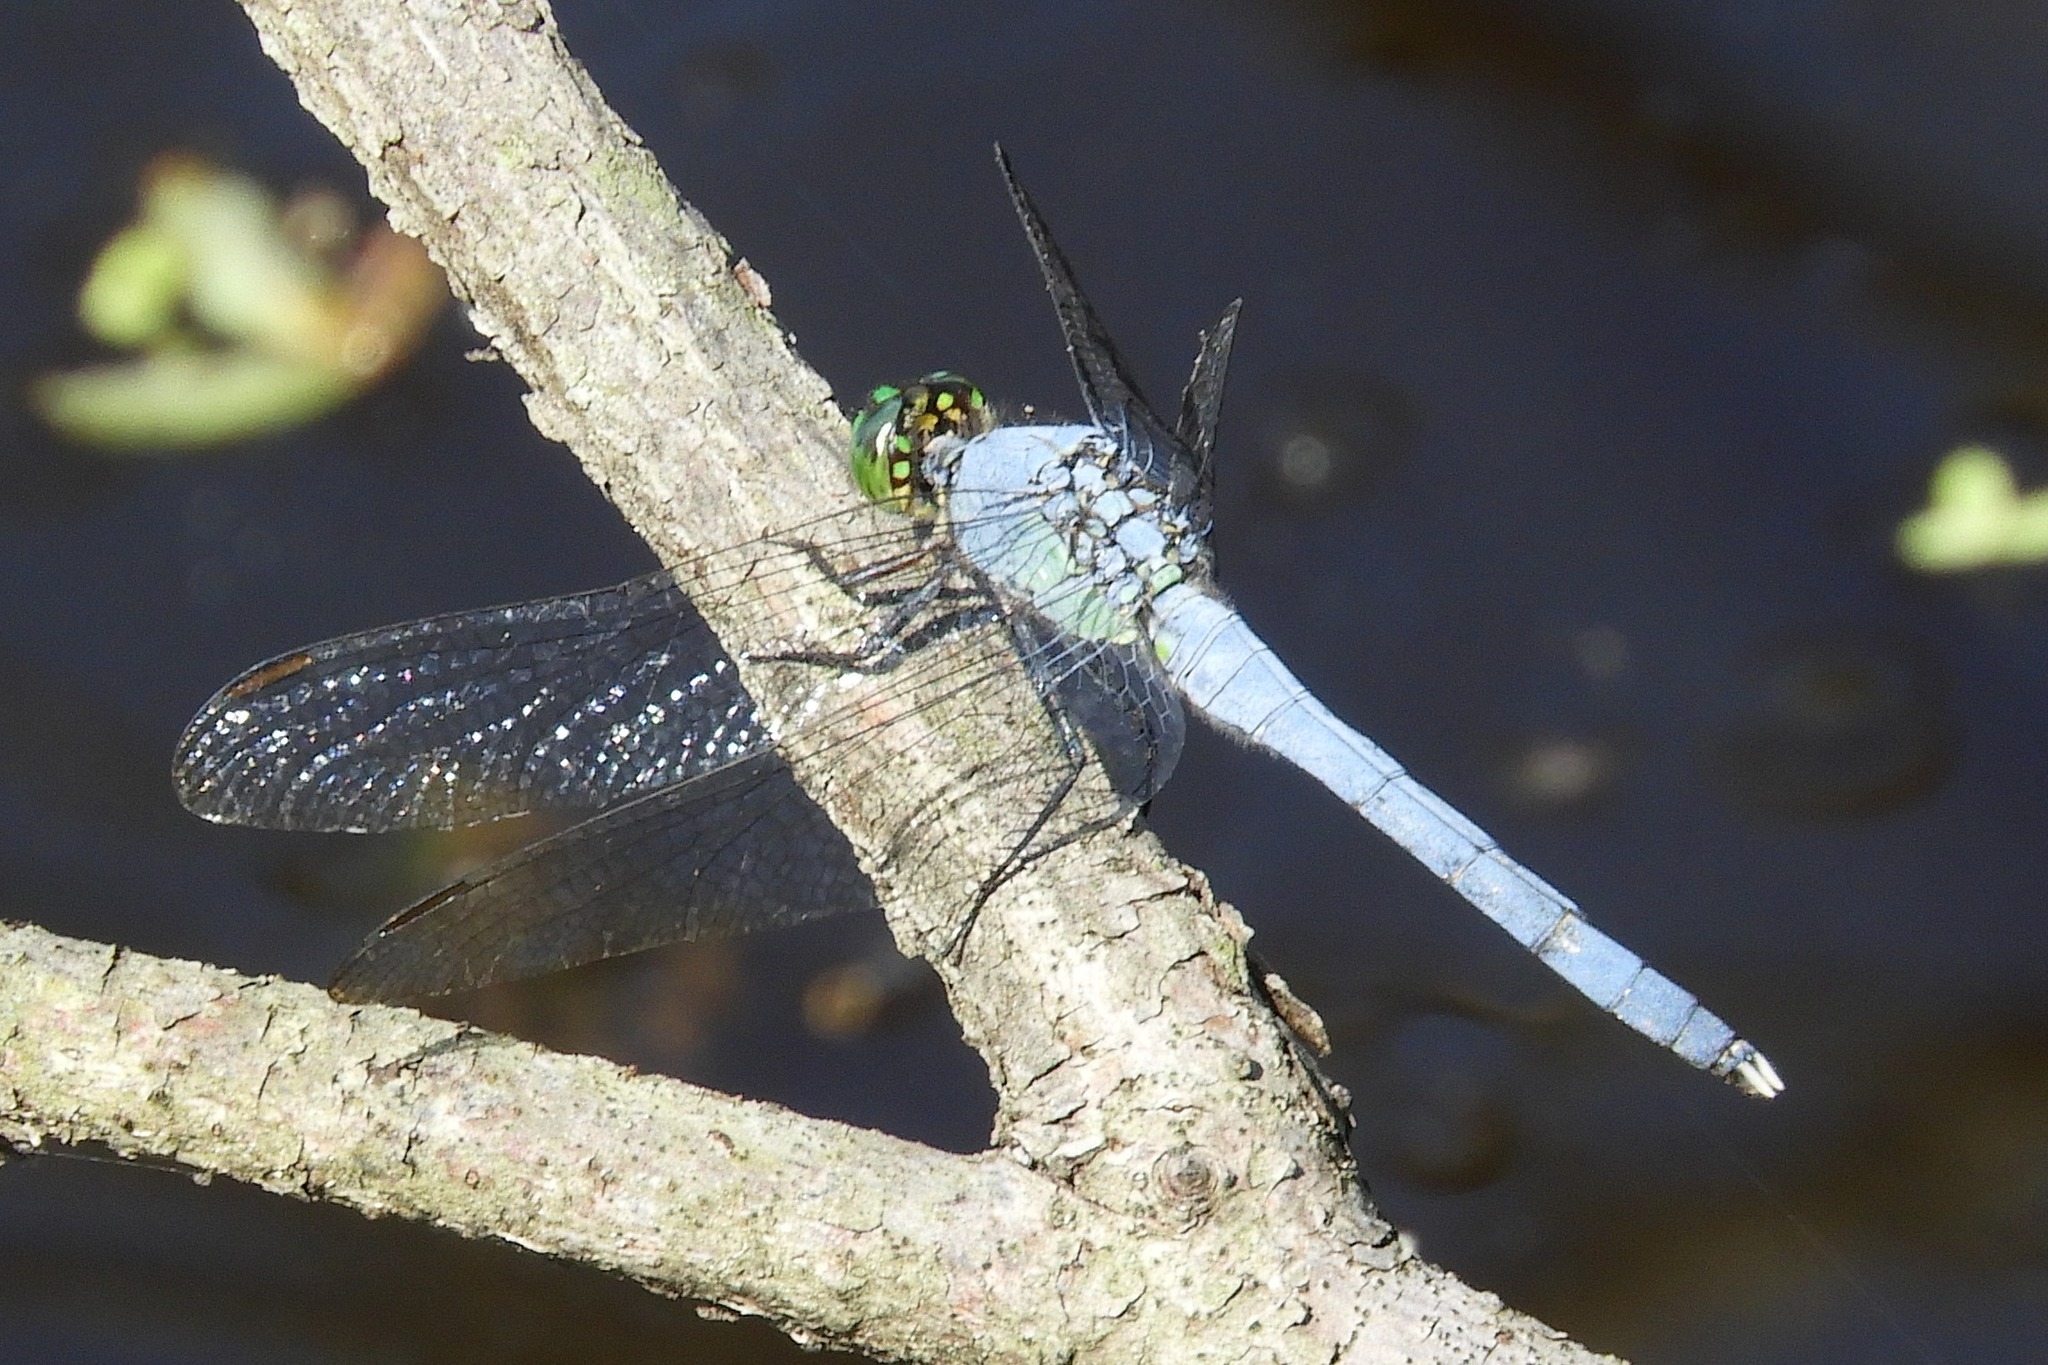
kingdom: Animalia
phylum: Arthropoda
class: Insecta
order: Odonata
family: Libellulidae
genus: Erythemis
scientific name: Erythemis simplicicollis
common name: Eastern pondhawk
